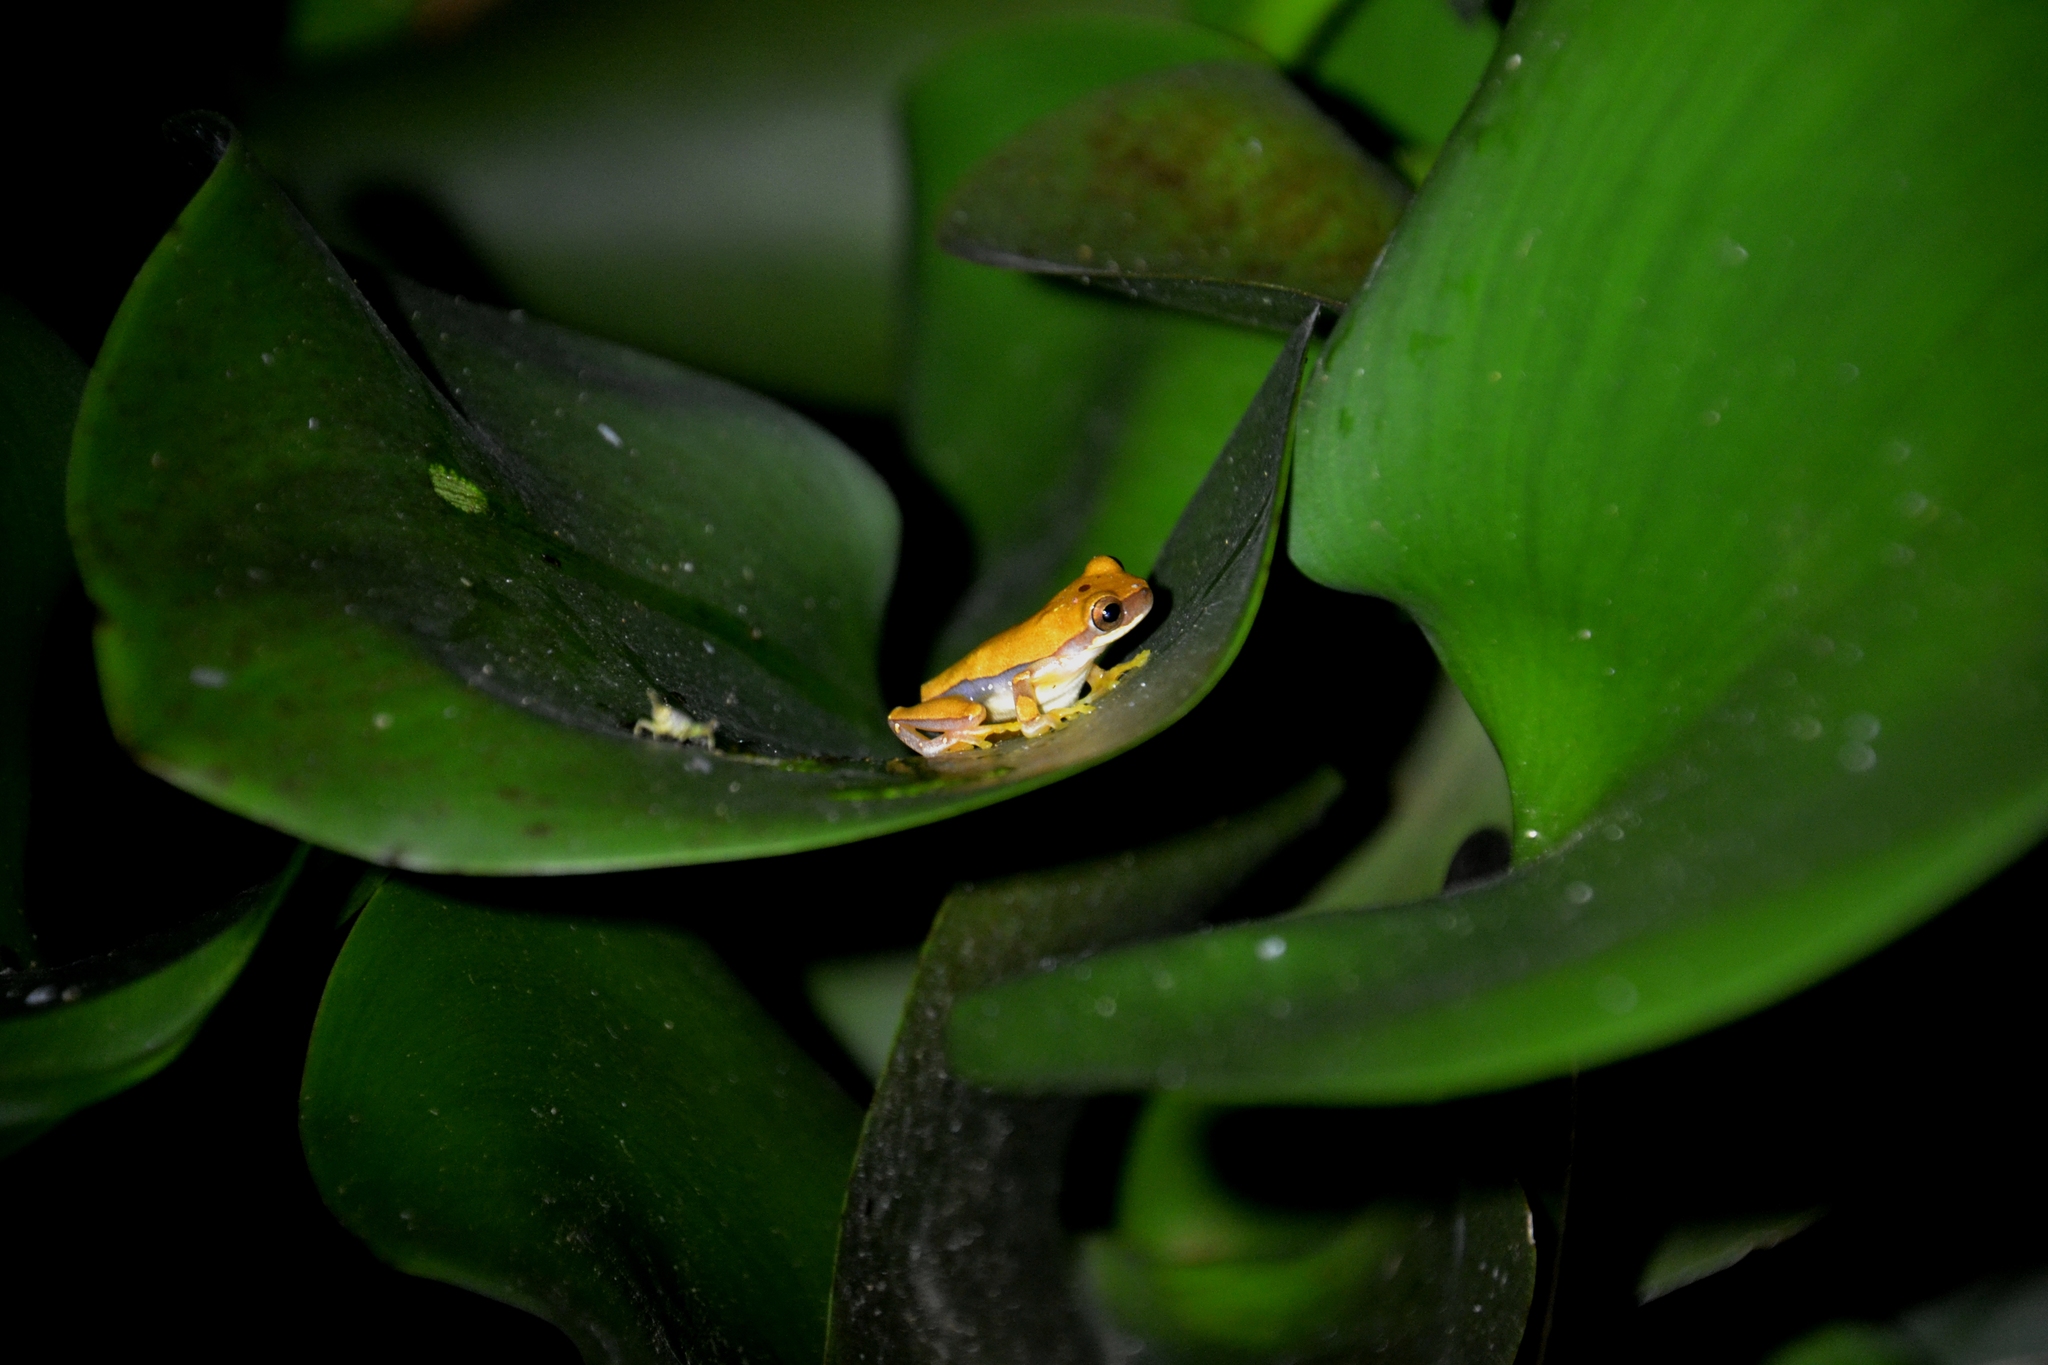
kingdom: Animalia
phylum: Chordata
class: Amphibia
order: Anura
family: Hylidae
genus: Dendropsophus
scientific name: Dendropsophus ebraccatus
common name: Hourglass treefrog
